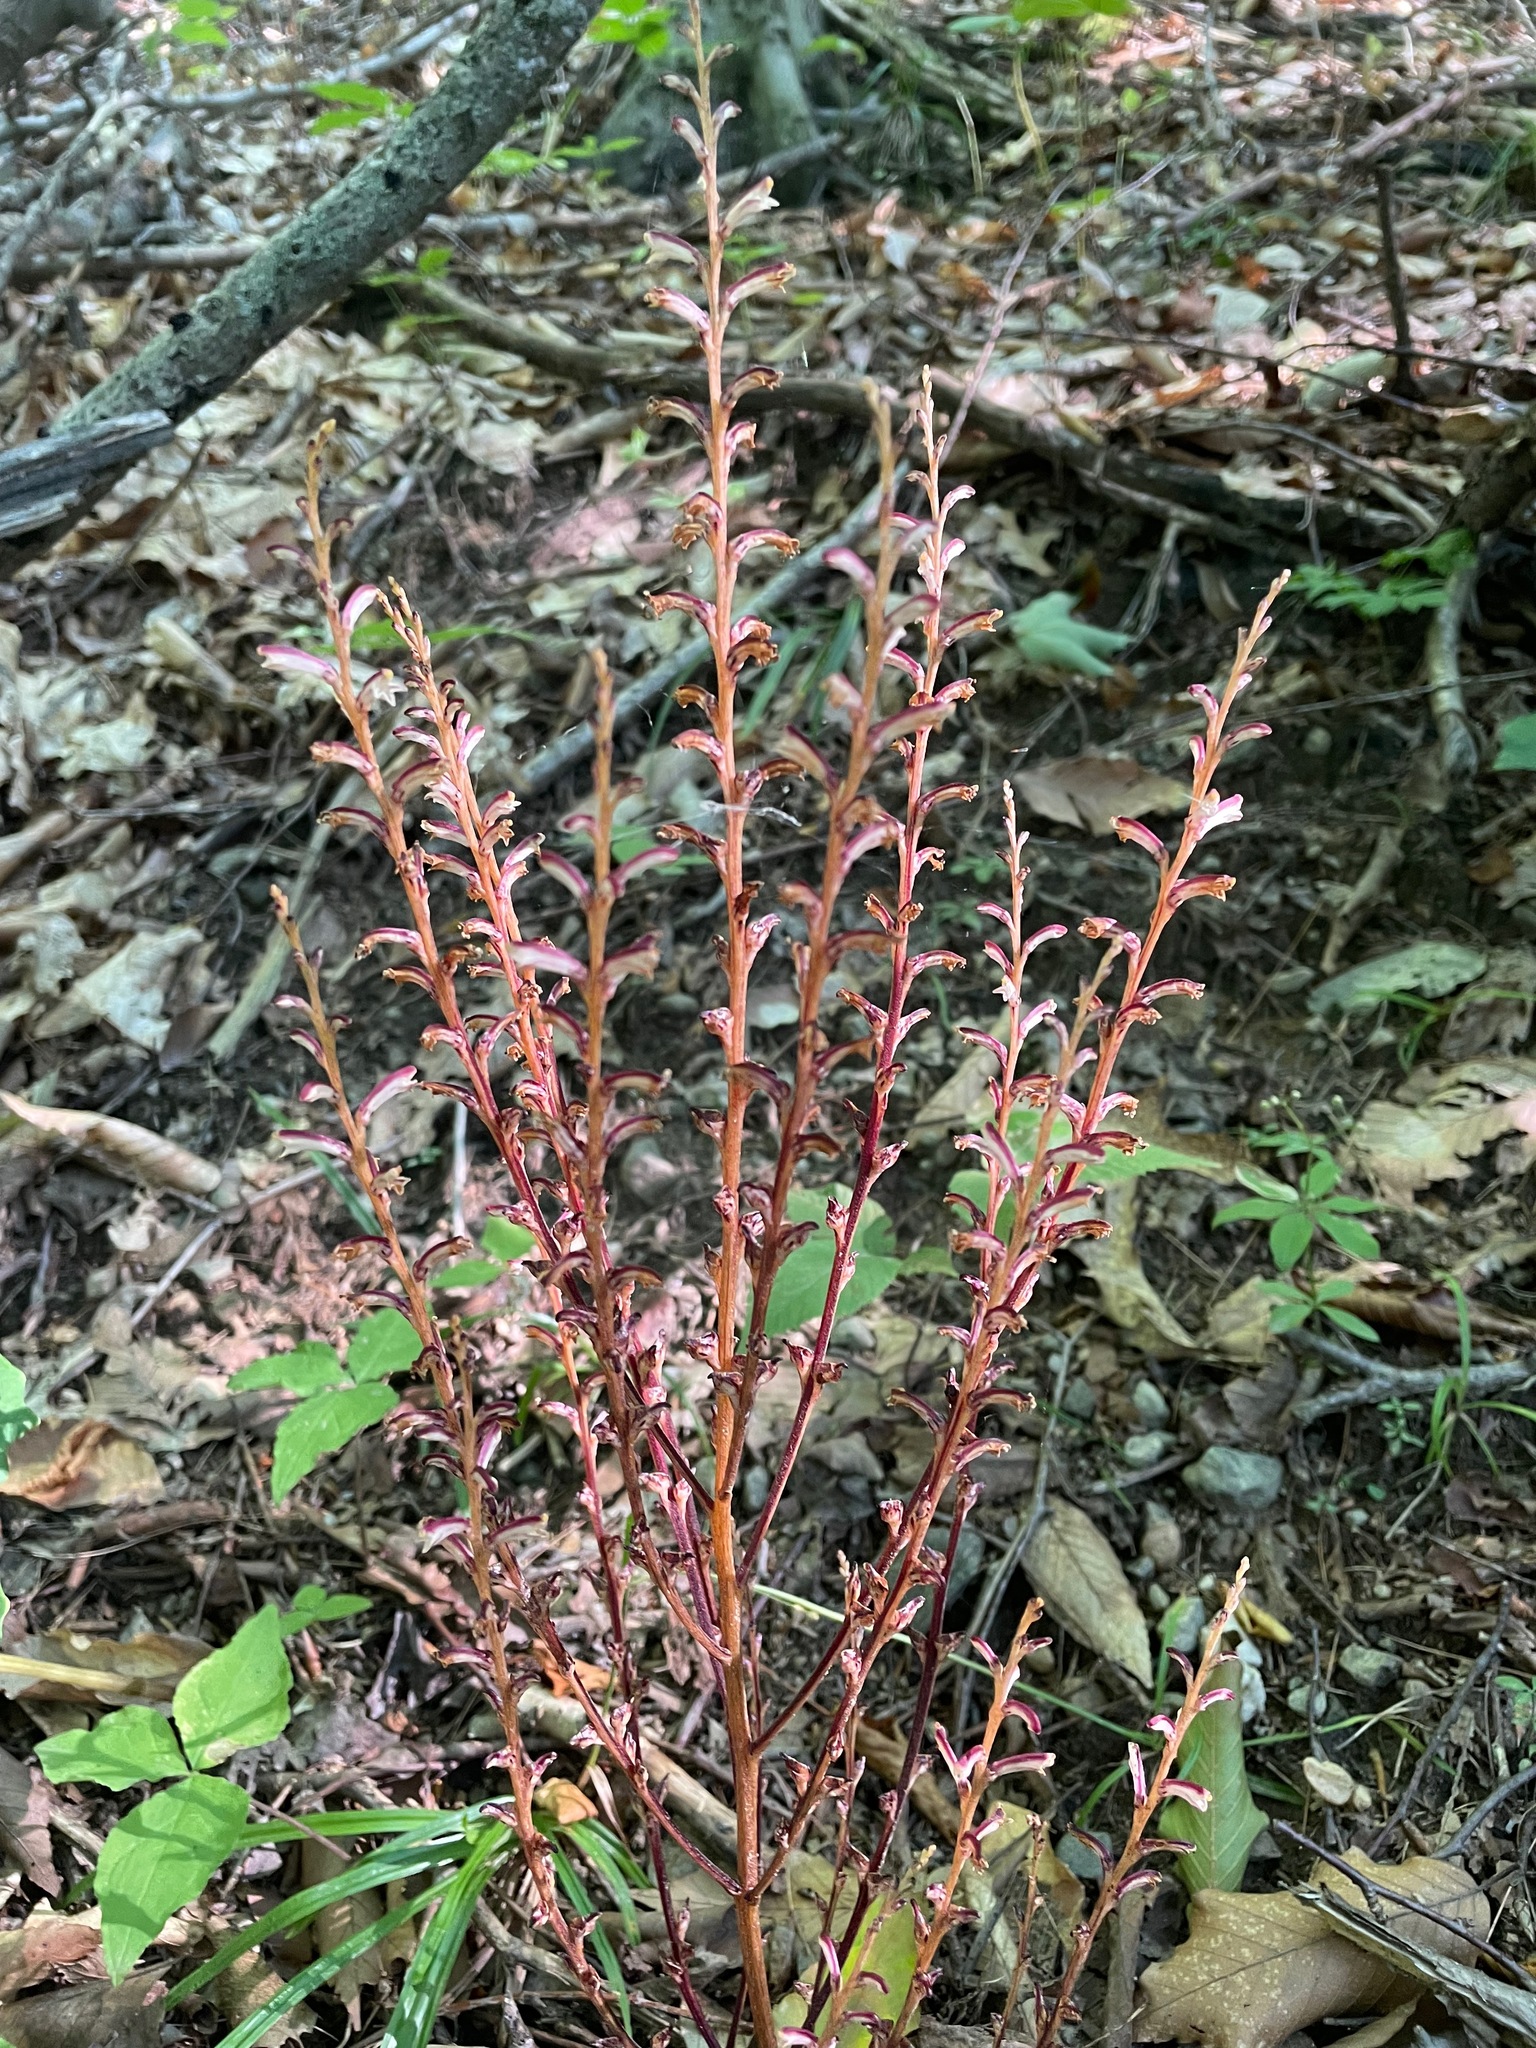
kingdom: Plantae
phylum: Tracheophyta
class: Magnoliopsida
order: Lamiales
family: Orobanchaceae
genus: Epifagus
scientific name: Epifagus virginiana
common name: Beechdrops
